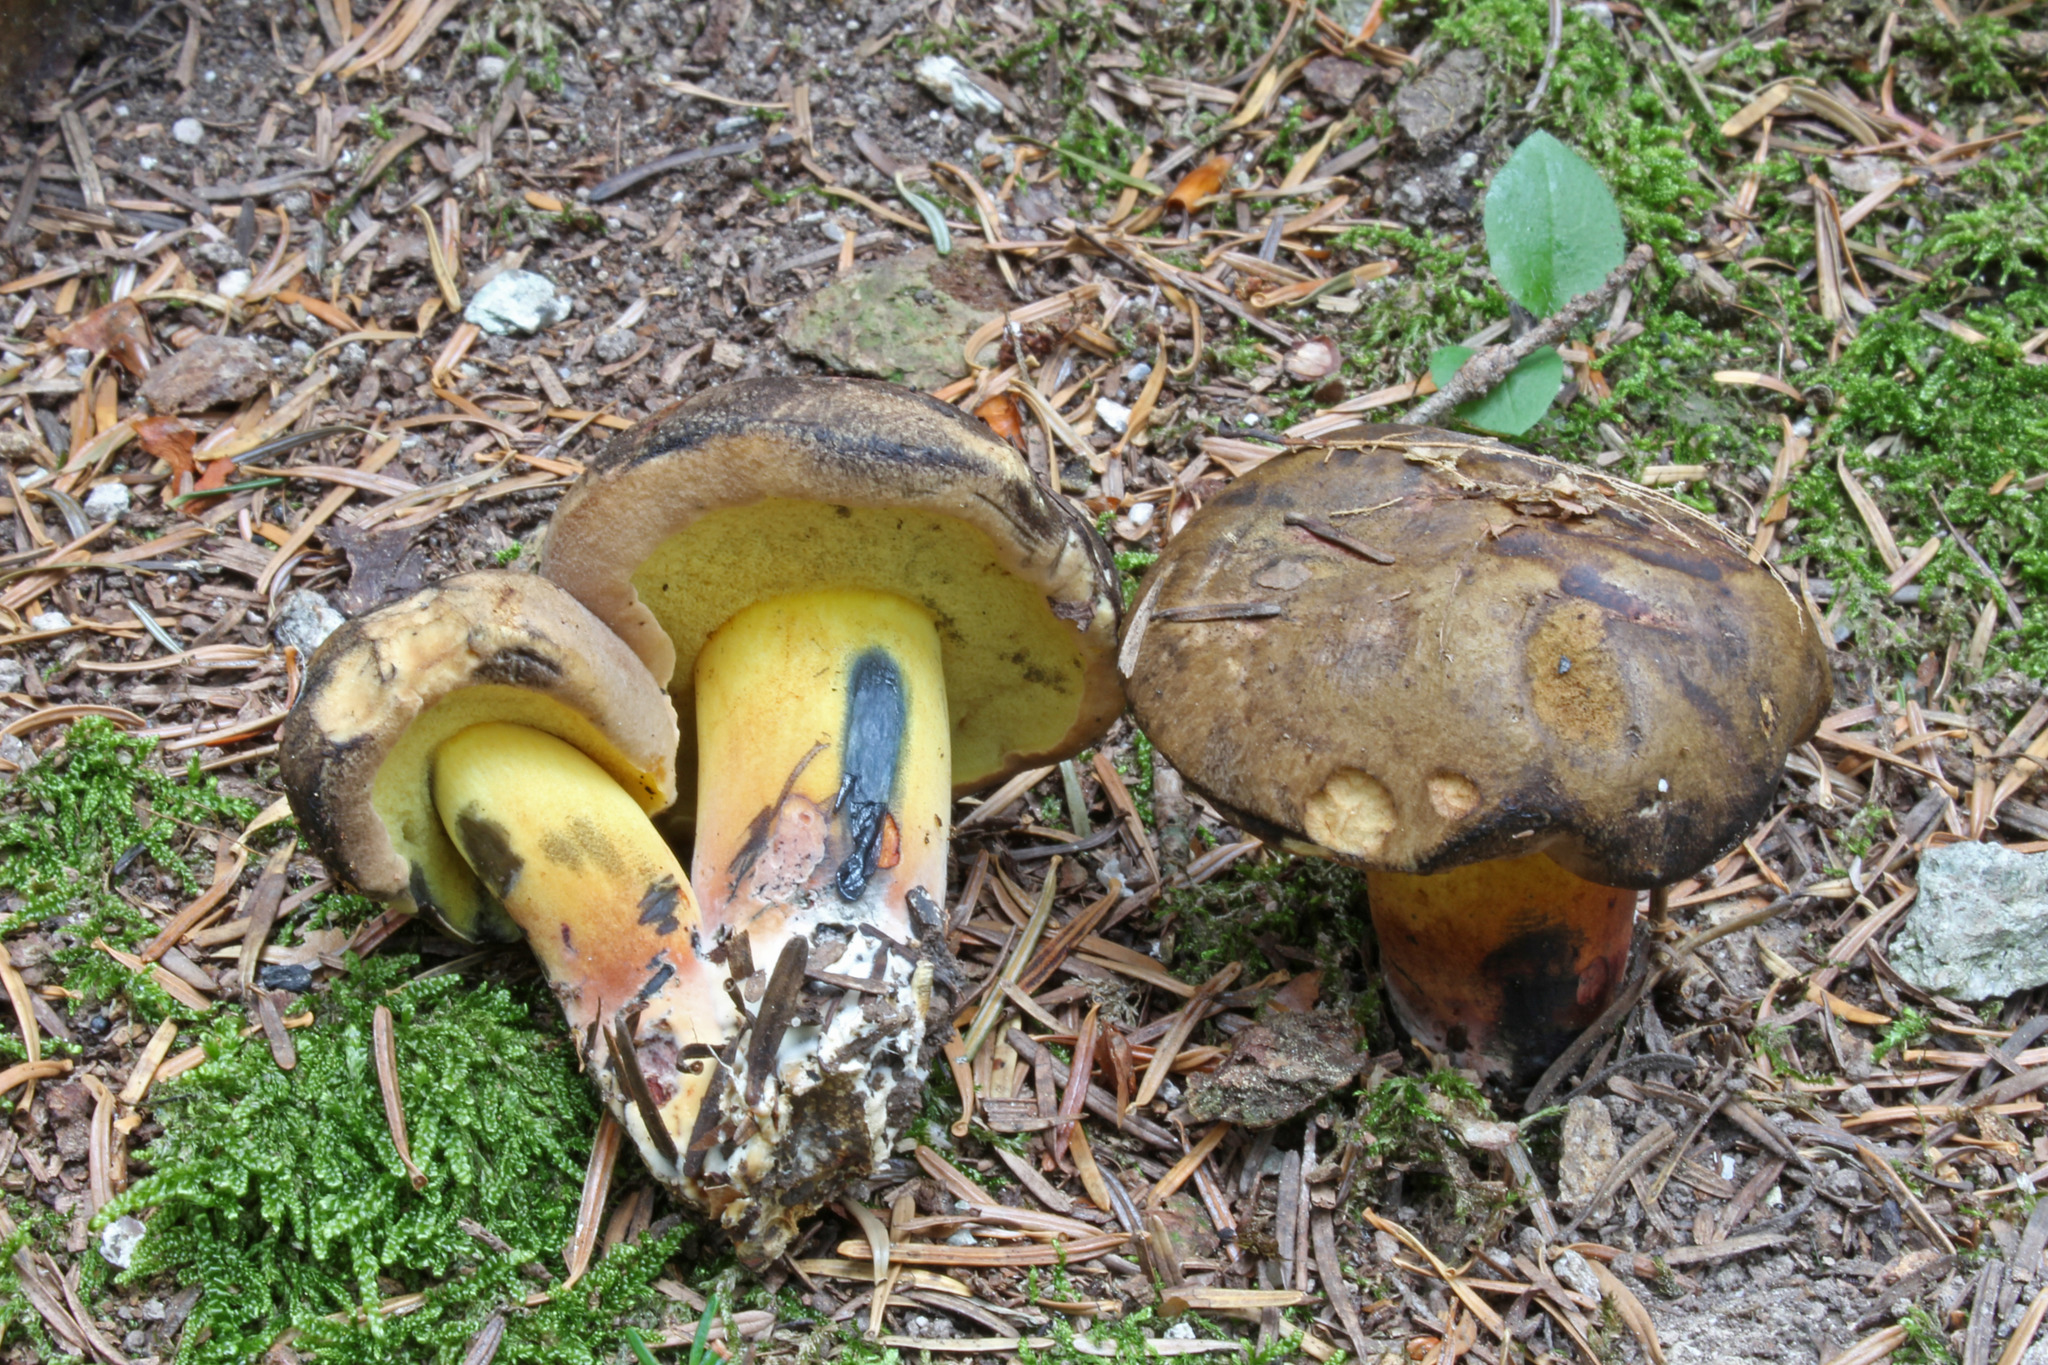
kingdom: Fungi
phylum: Basidiomycota
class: Agaricomycetes
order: Boletales
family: Boletaceae
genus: Cyanoboletus
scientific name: Cyanoboletus pulverulentus
